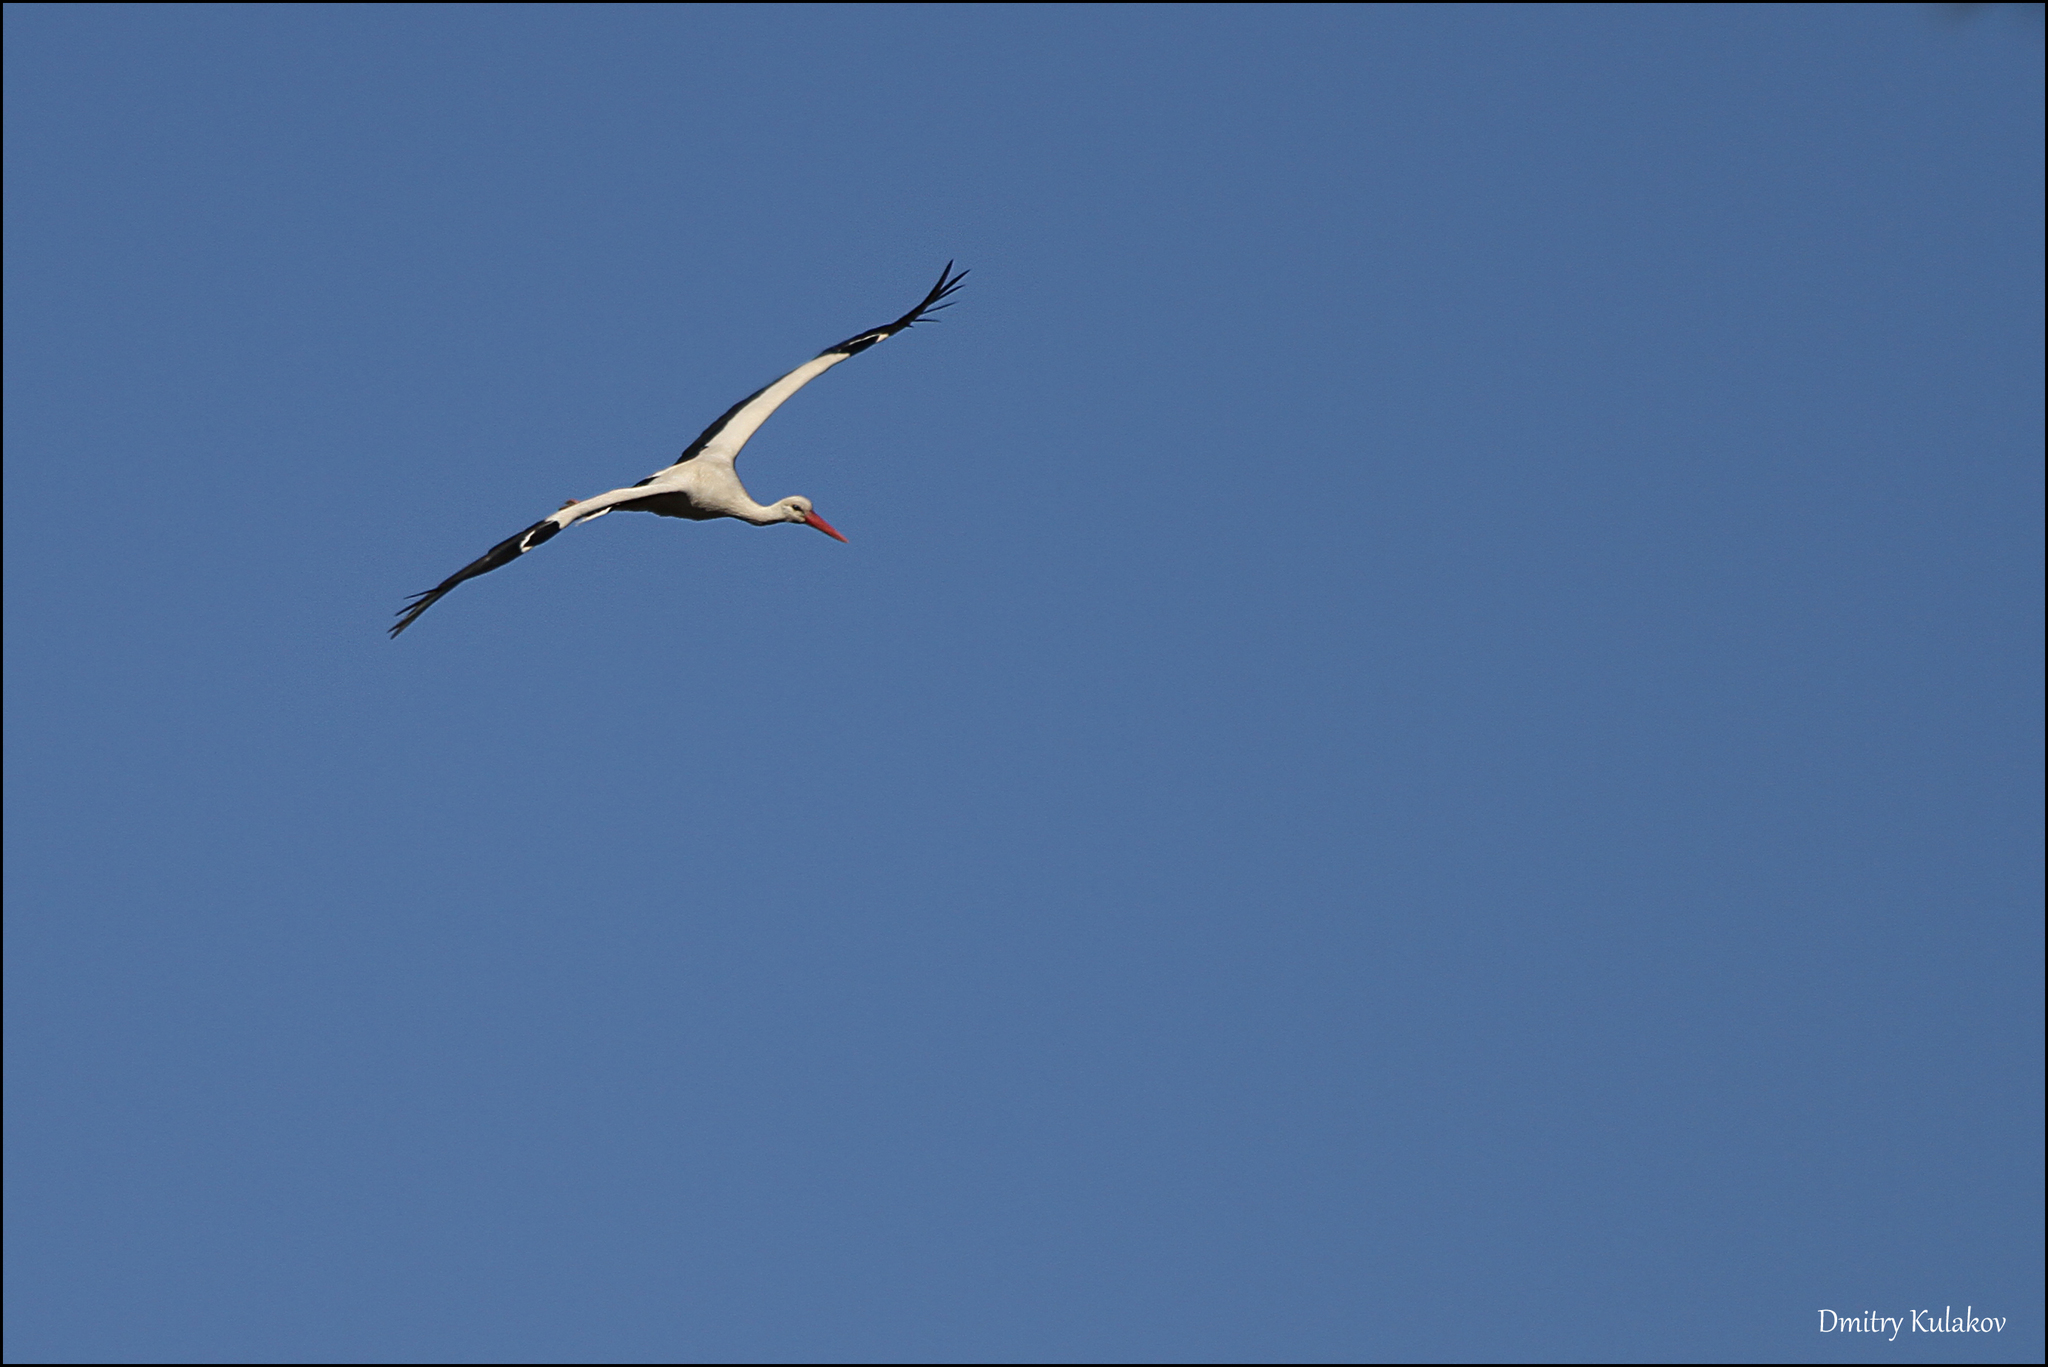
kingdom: Animalia
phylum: Chordata
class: Aves
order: Ciconiiformes
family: Ciconiidae
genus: Ciconia
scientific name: Ciconia ciconia
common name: White stork
